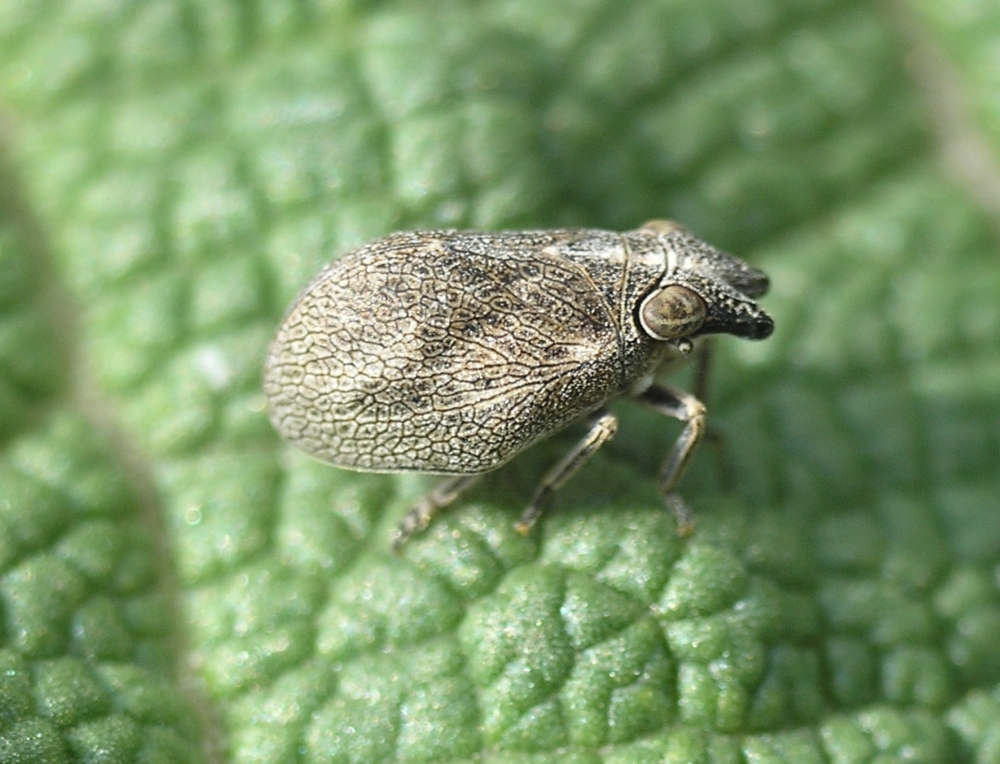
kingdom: Animalia
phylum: Arthropoda
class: Insecta
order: Hemiptera
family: Issidae
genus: Bootheca
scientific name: Bootheca taurus
